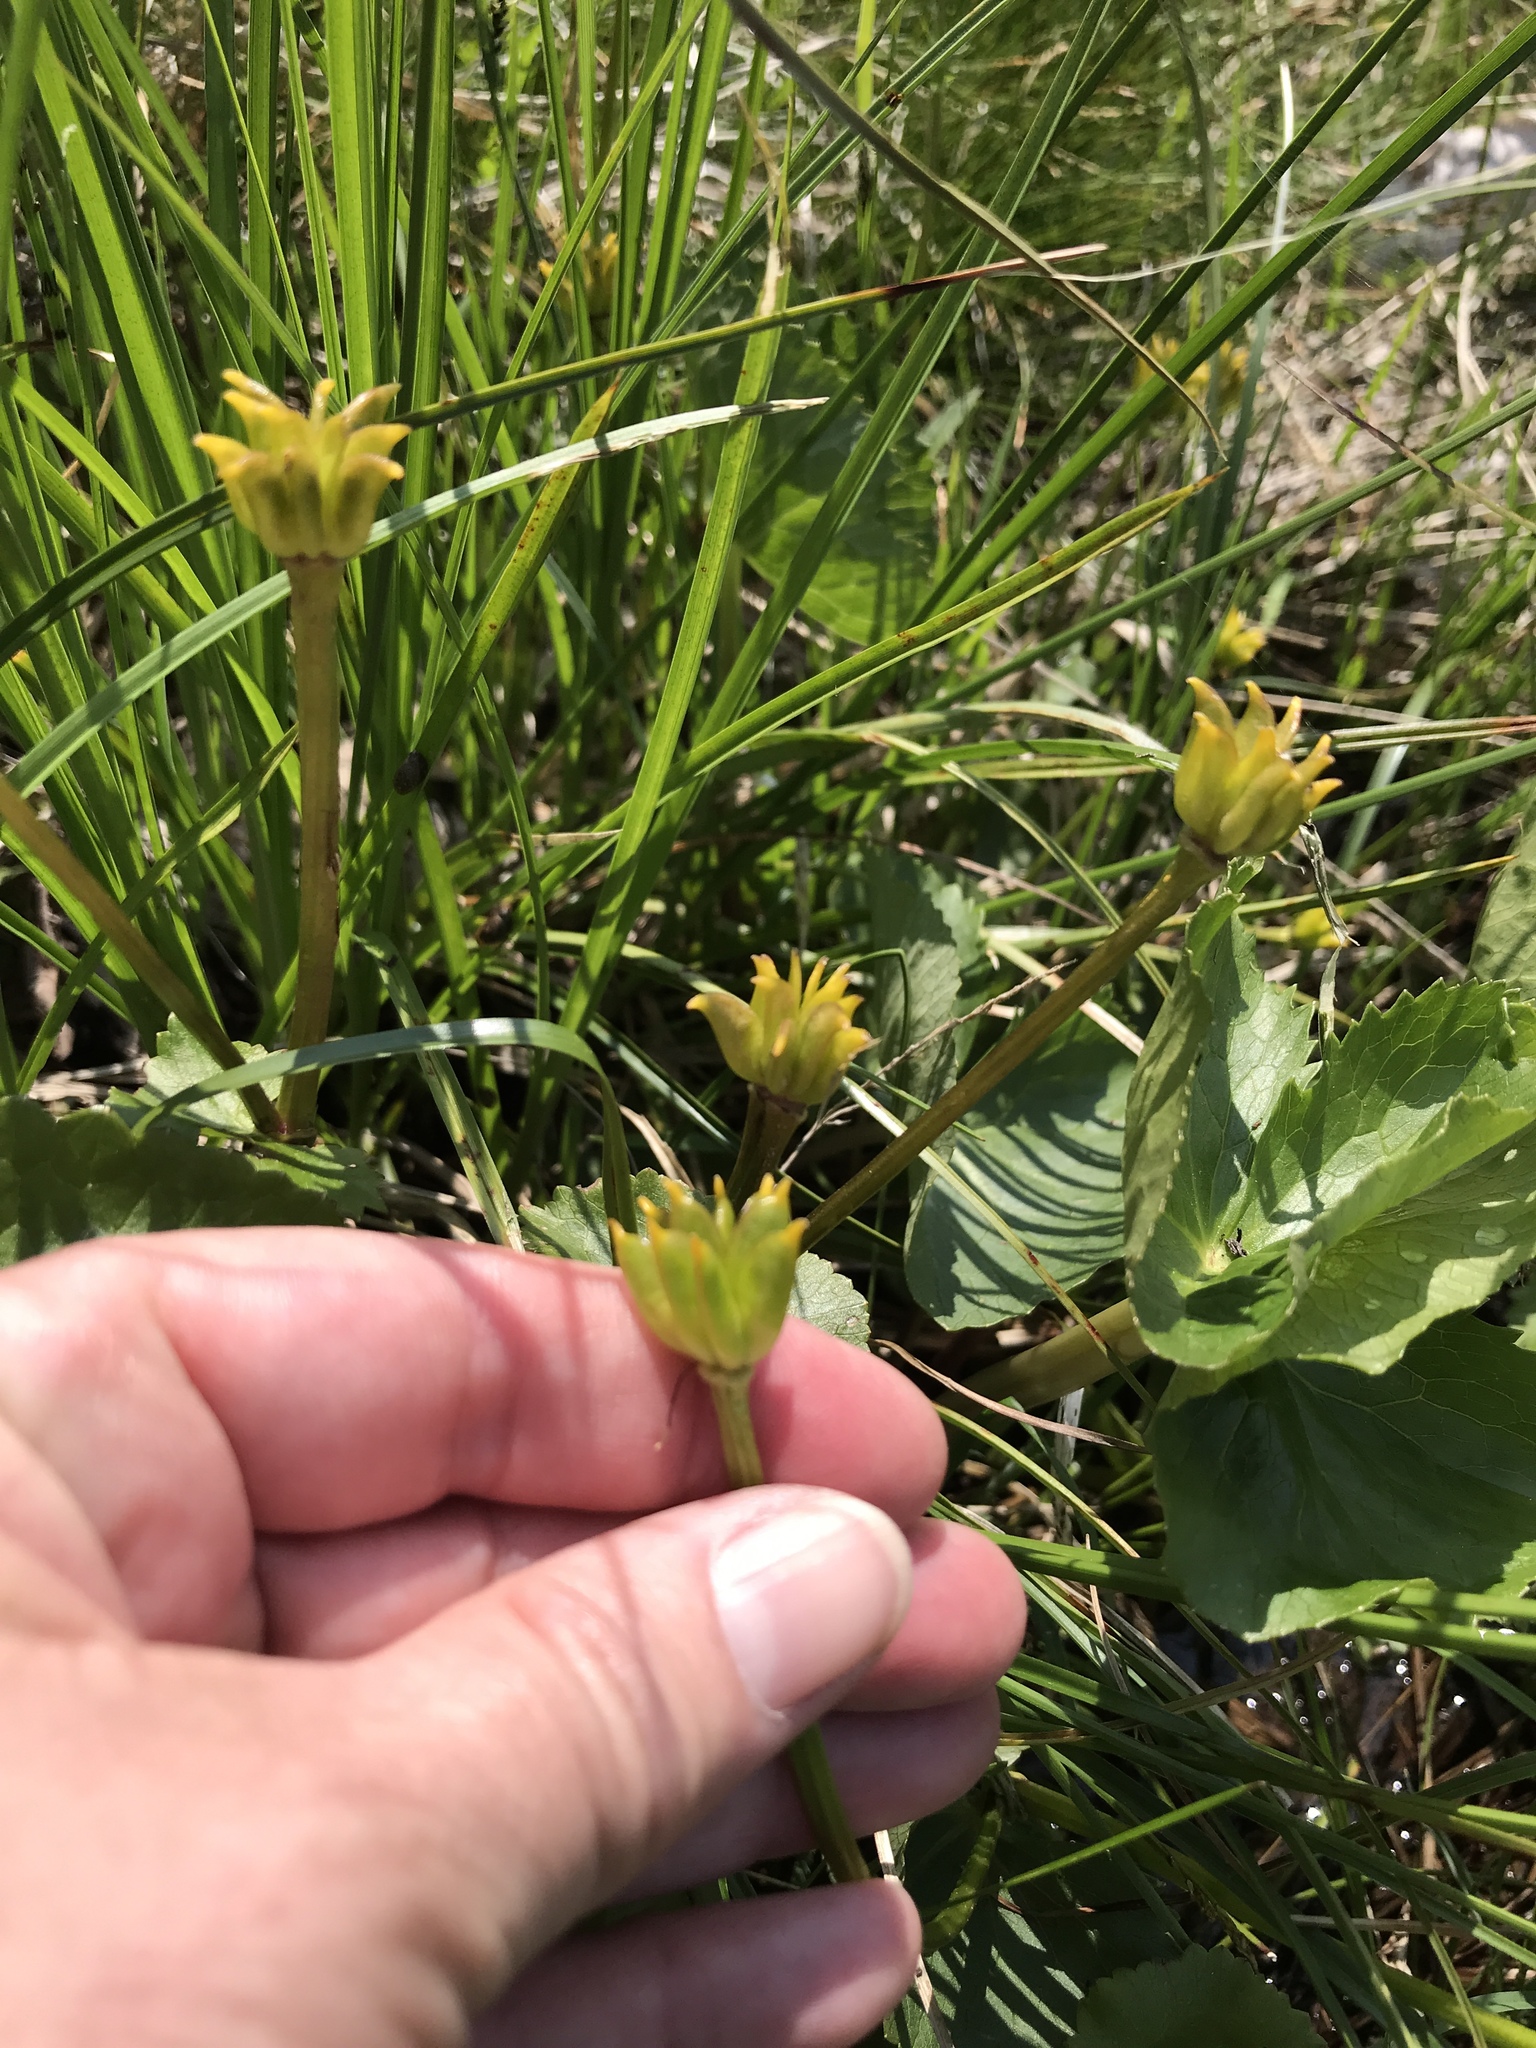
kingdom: Plantae
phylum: Tracheophyta
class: Magnoliopsida
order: Ranunculales
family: Ranunculaceae
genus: Caltha
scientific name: Caltha palustris
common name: Marsh marigold
